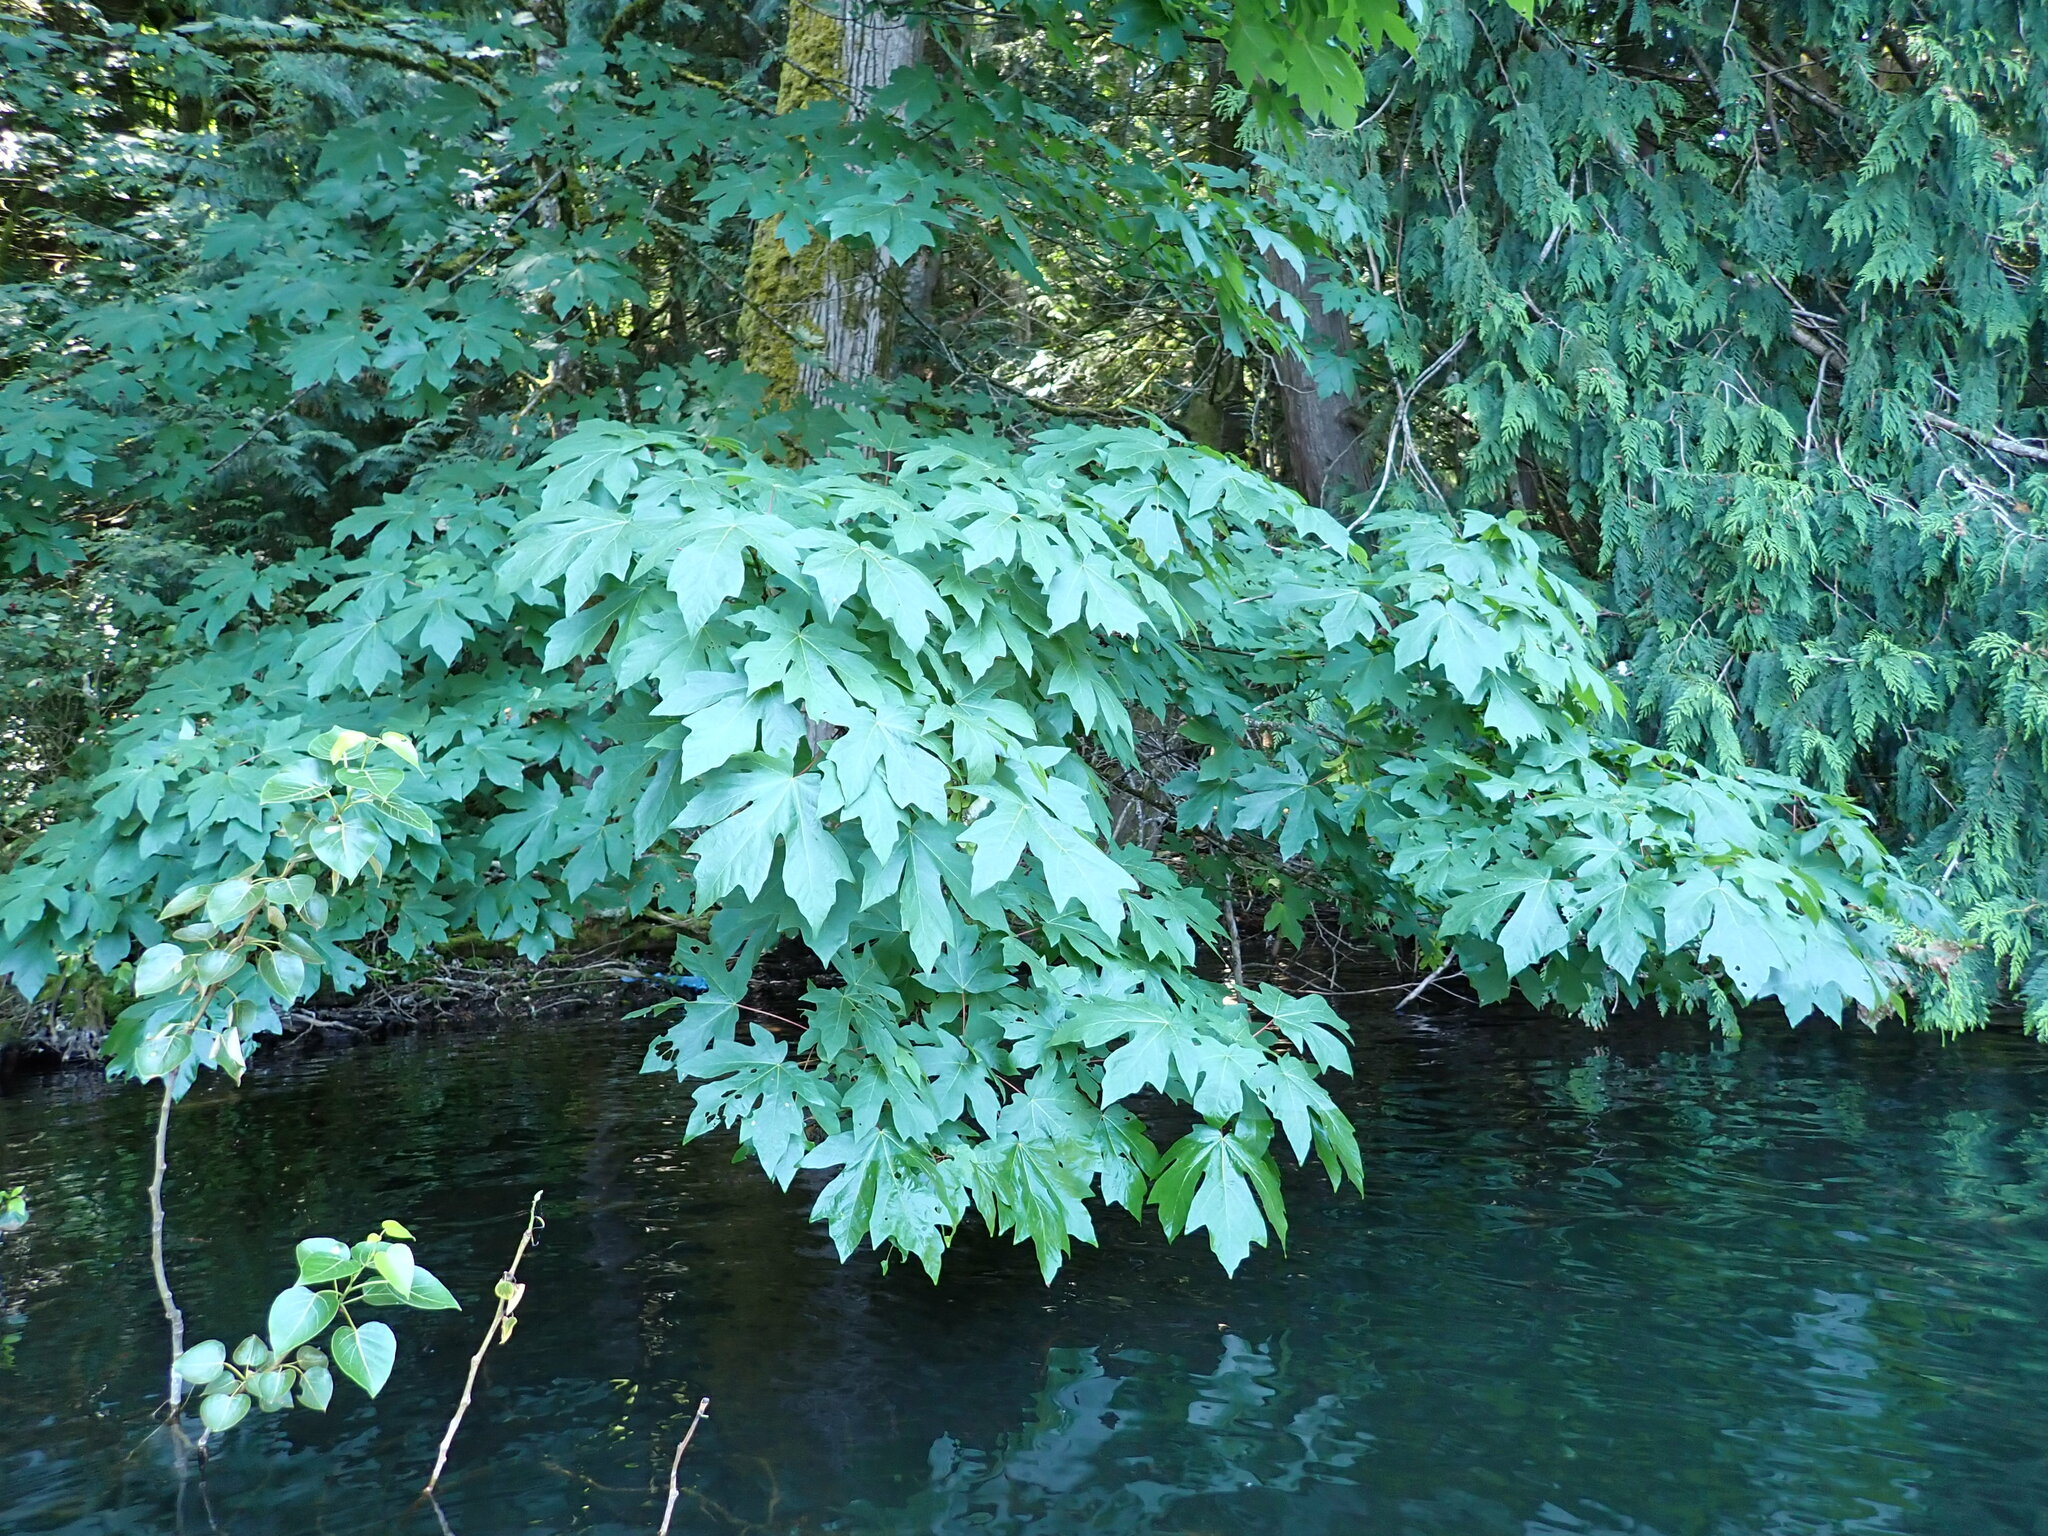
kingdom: Plantae
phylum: Tracheophyta
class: Magnoliopsida
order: Sapindales
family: Sapindaceae
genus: Acer
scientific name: Acer macrophyllum
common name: Oregon maple
